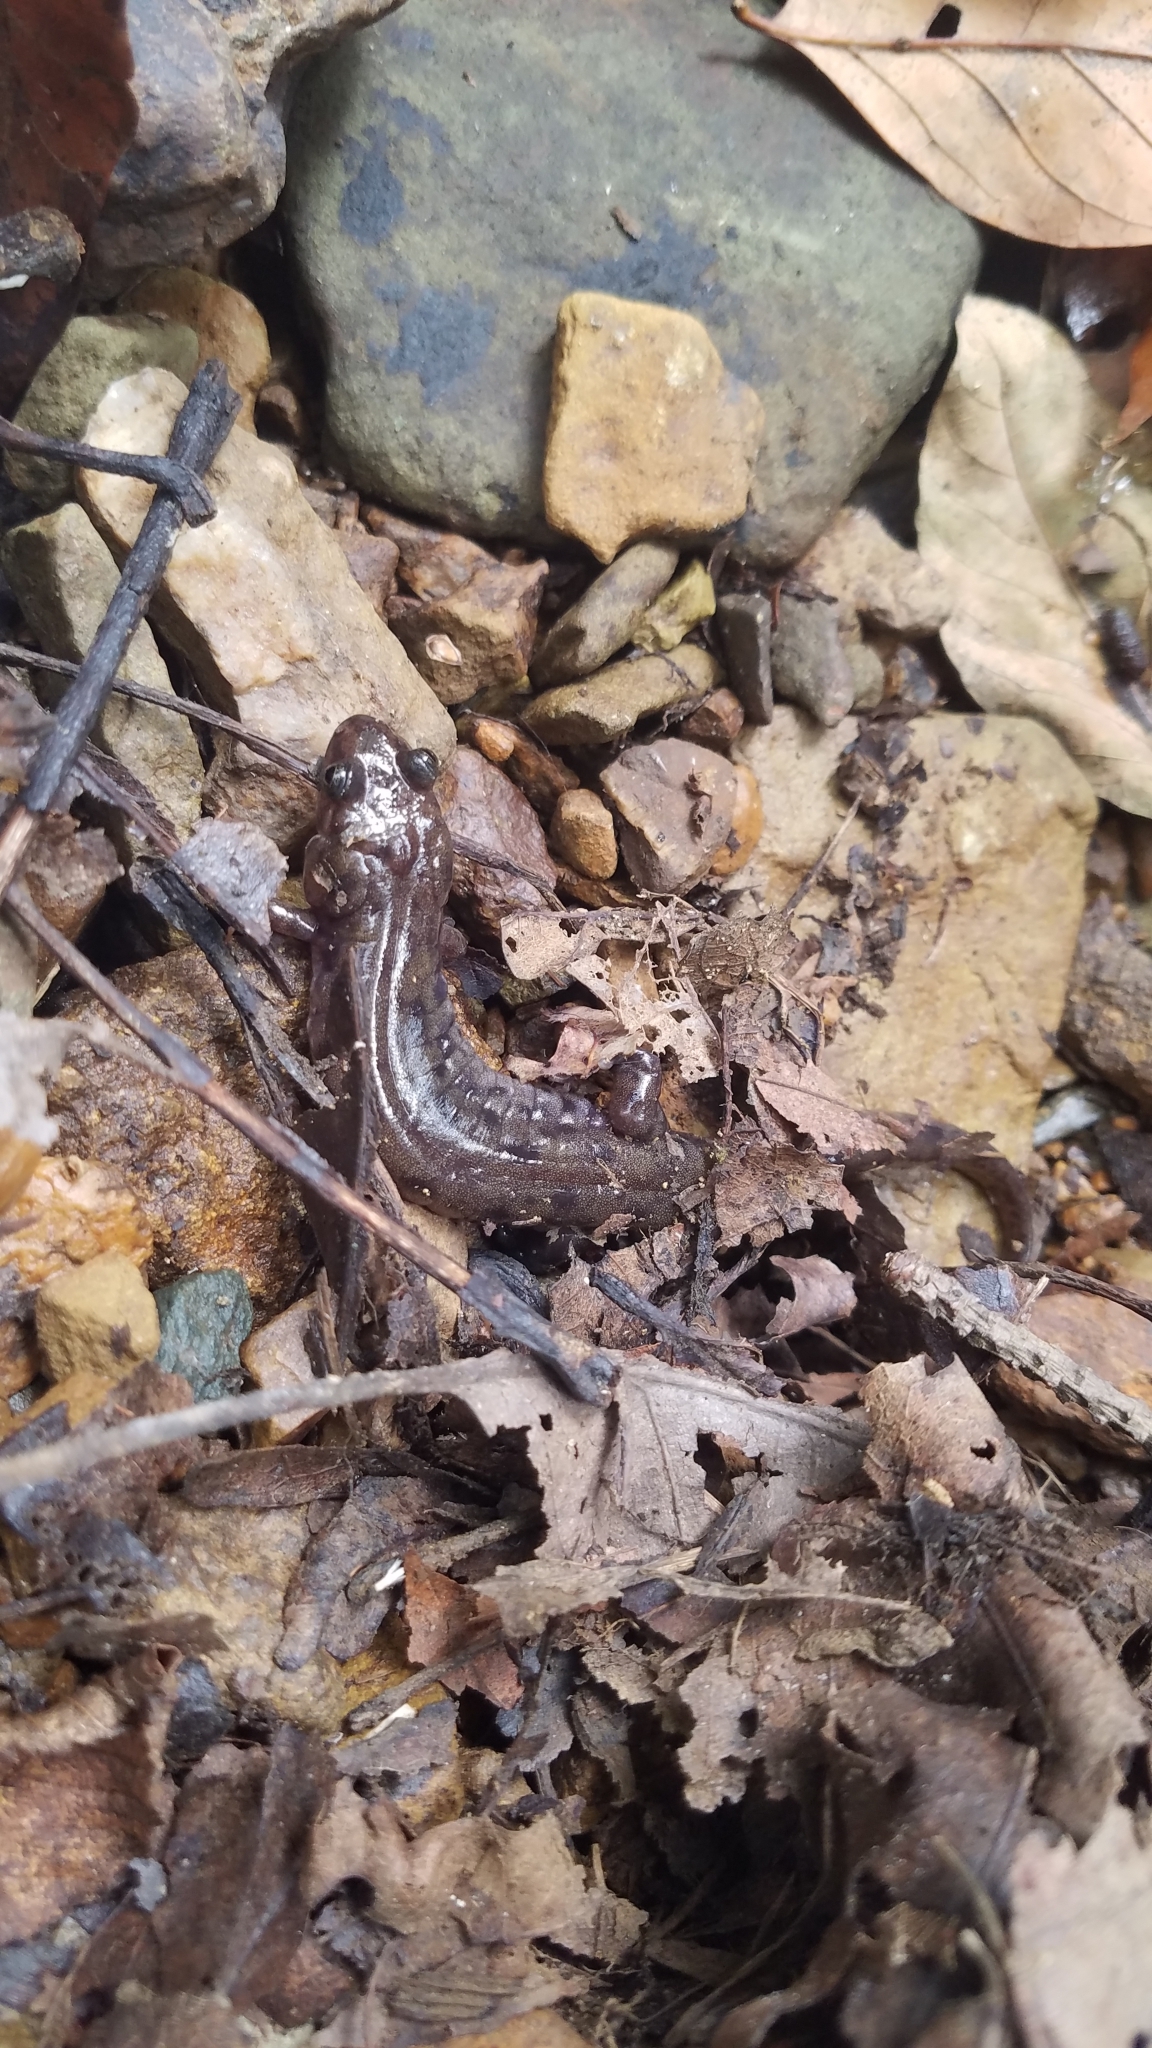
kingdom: Animalia
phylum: Chordata
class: Amphibia
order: Caudata
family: Plethodontidae
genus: Desmognathus
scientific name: Desmognathus monticola
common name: Seal salamander
